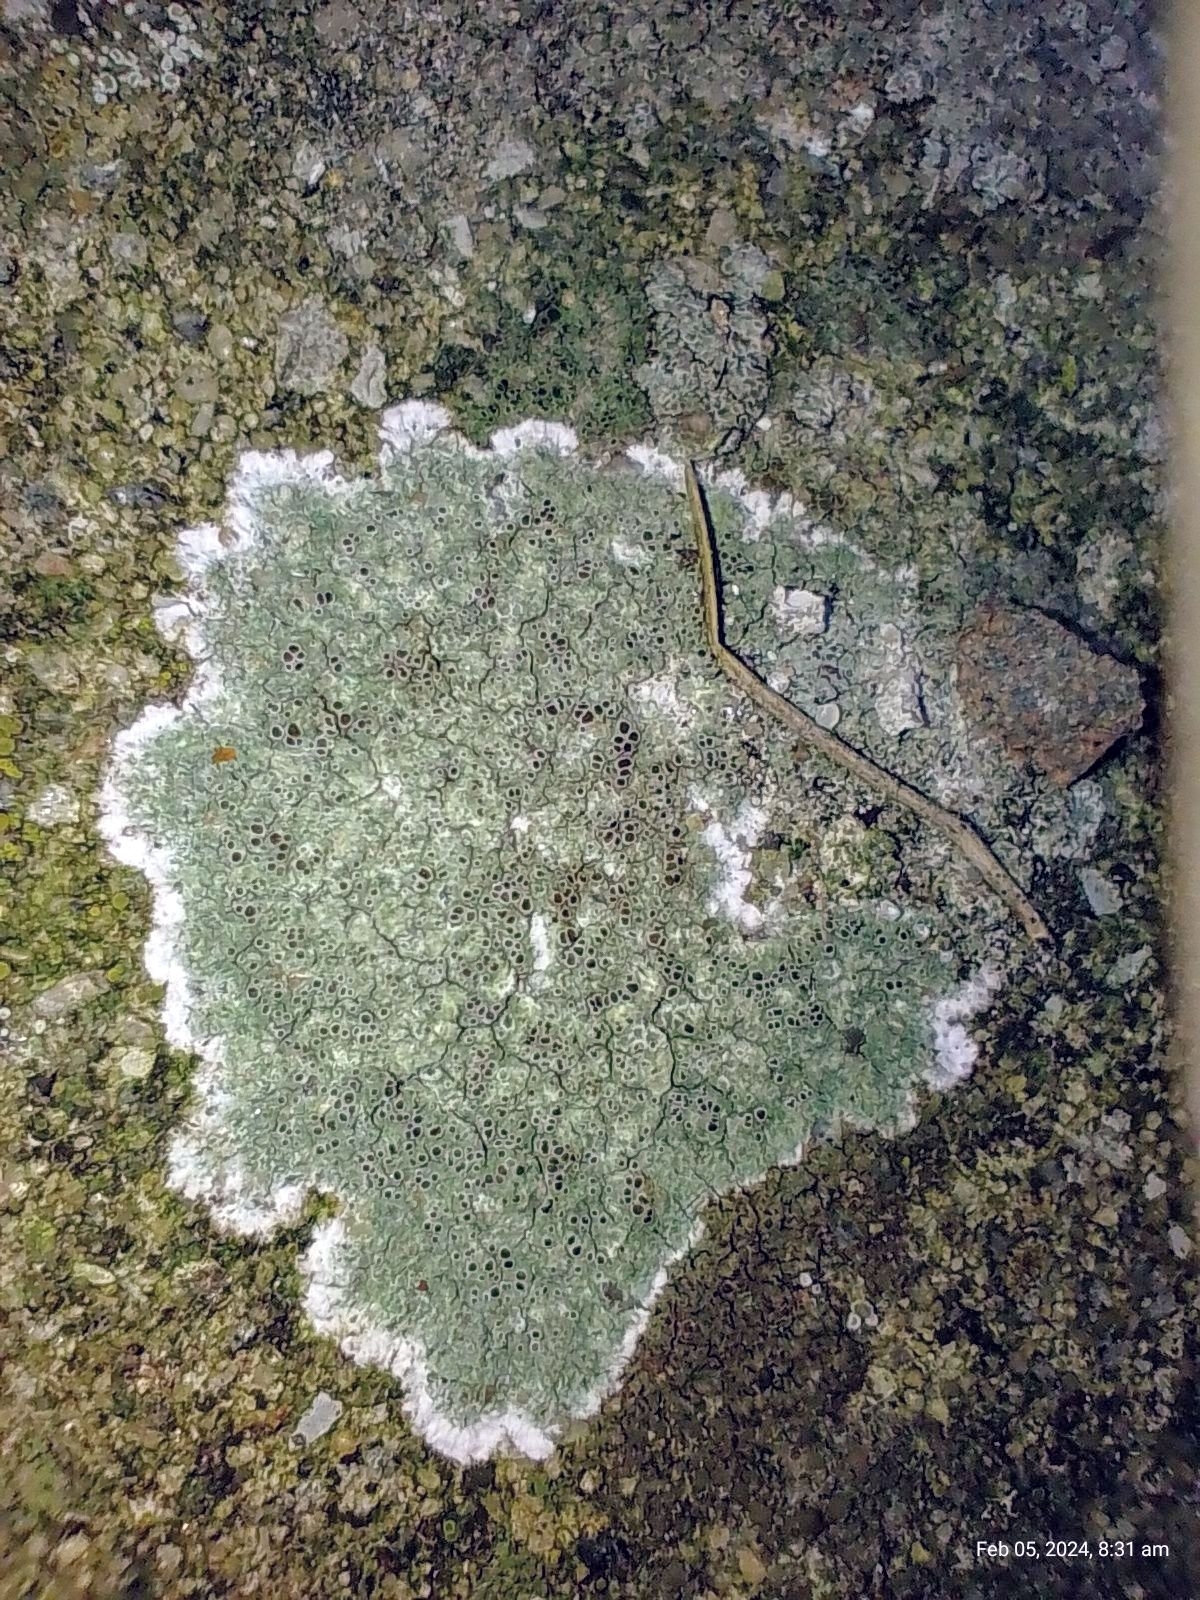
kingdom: Fungi
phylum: Ascomycota
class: Lecanoromycetes
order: Lecanorales
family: Lecanoraceae
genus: Lecanora
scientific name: Lecanora campestris
